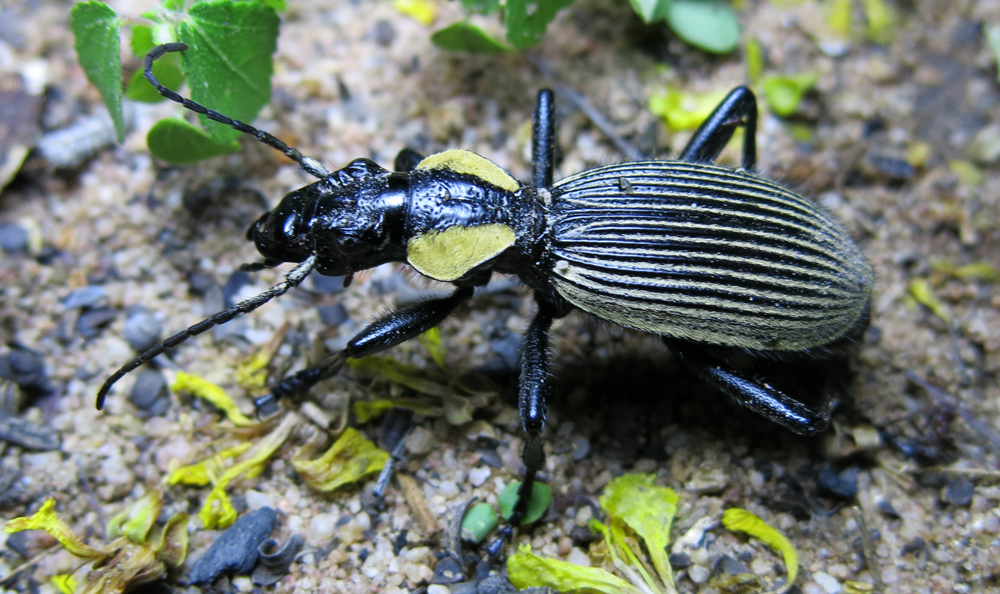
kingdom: Animalia
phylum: Arthropoda
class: Insecta
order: Coleoptera
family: Carabidae
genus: Anthia
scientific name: Anthia burchelli
